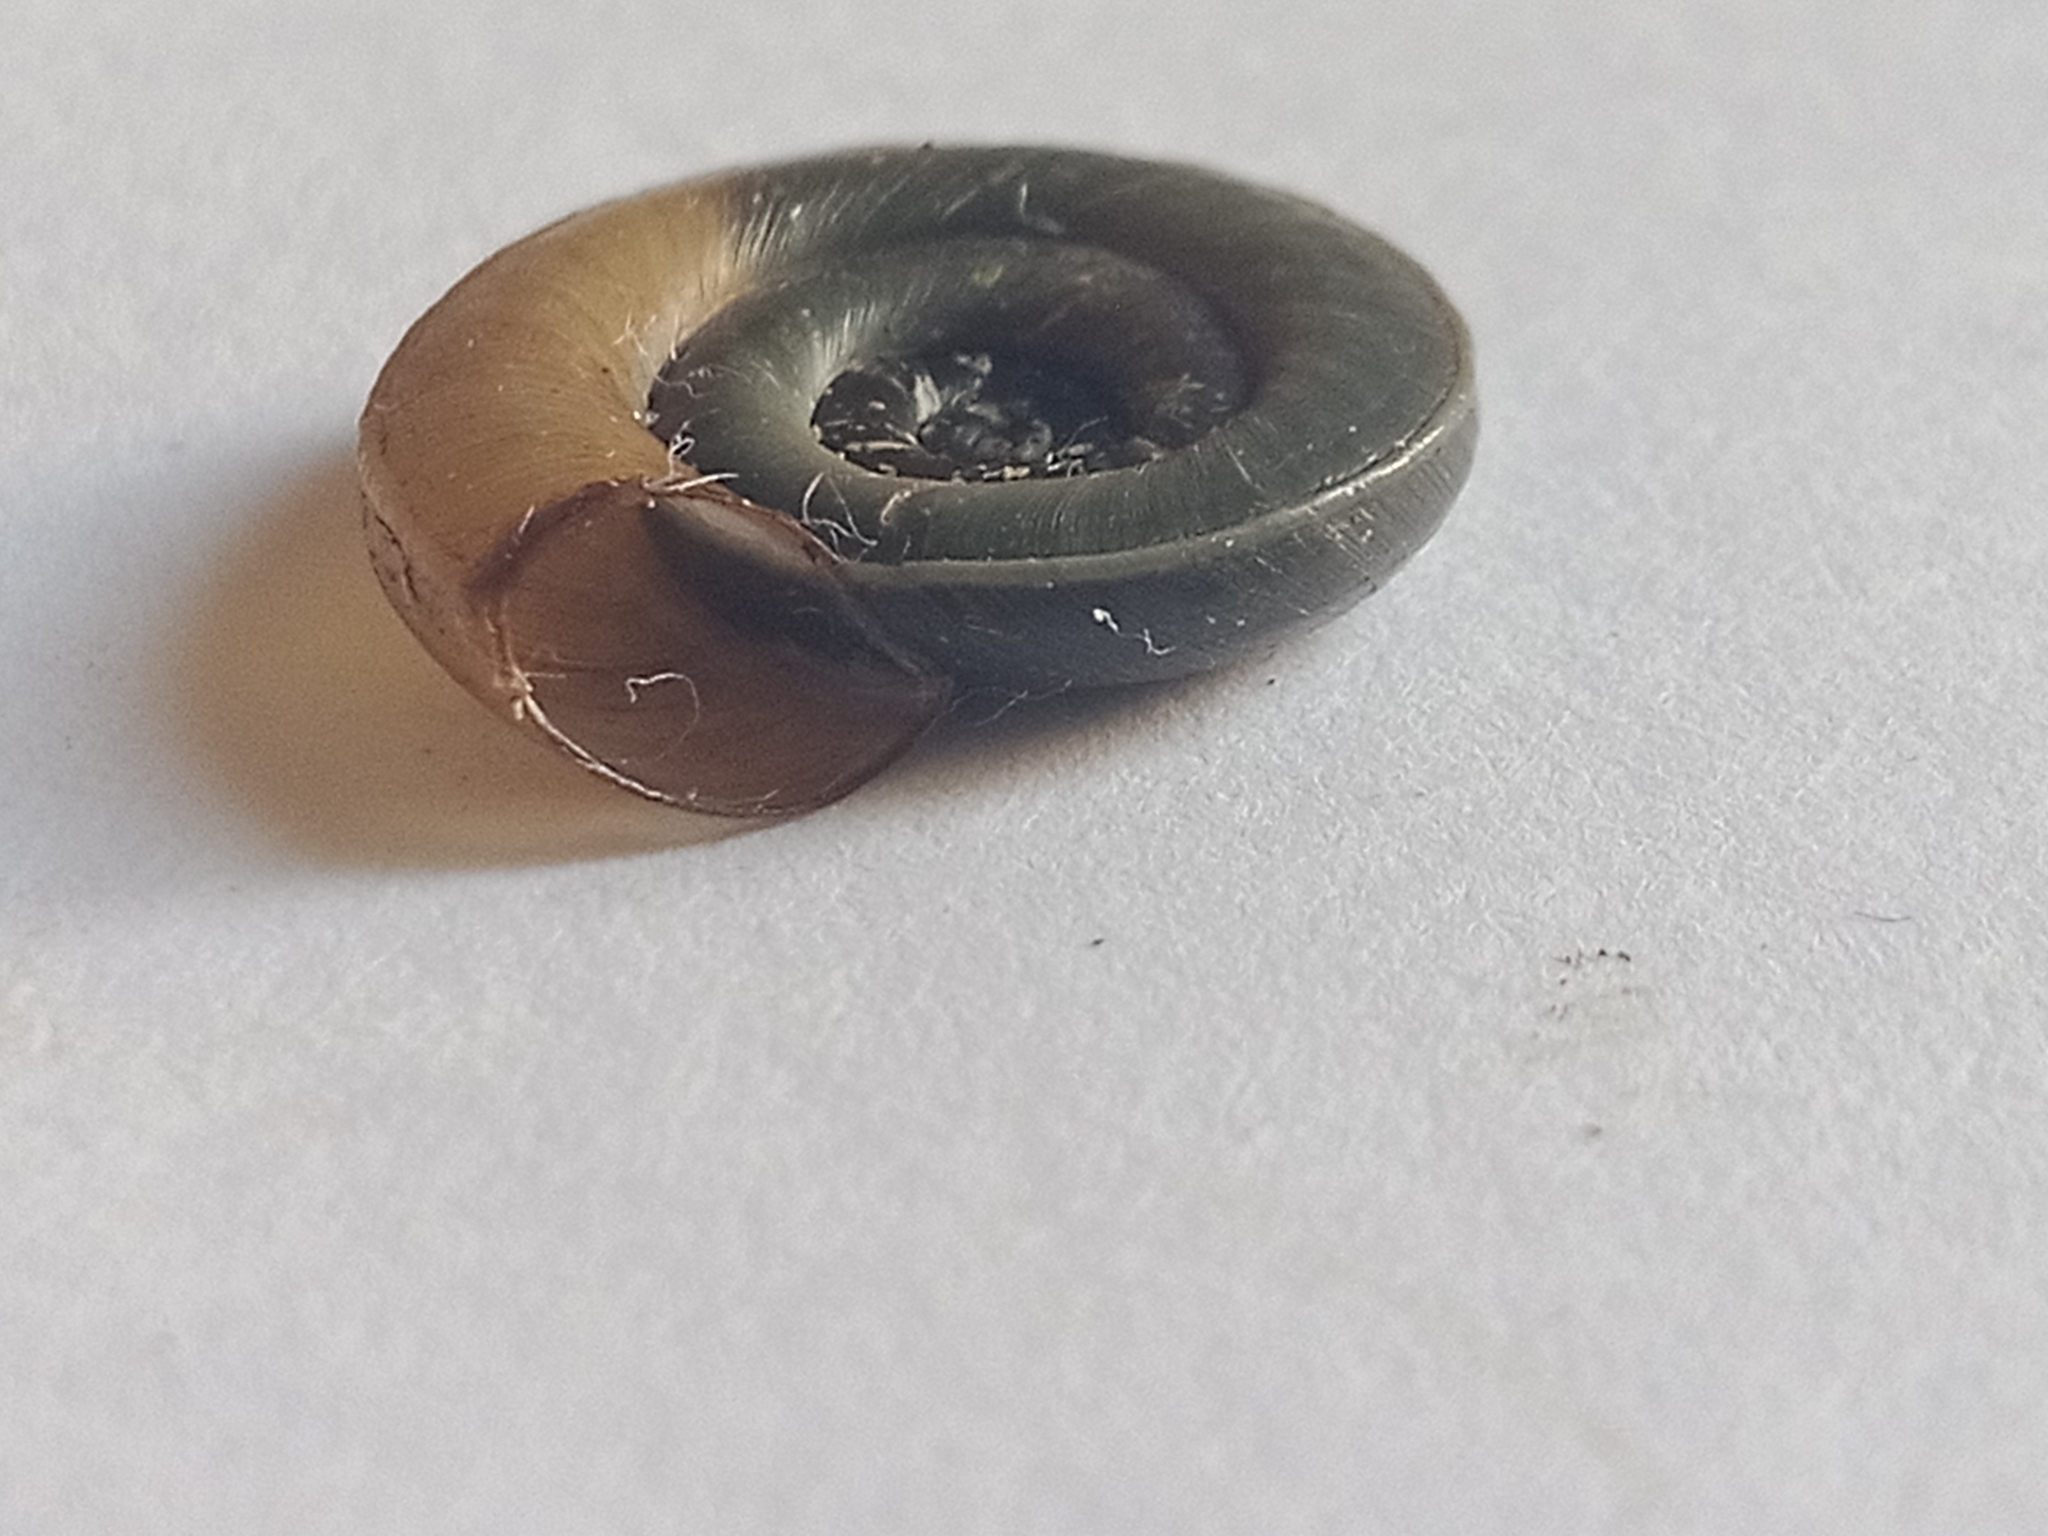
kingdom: Animalia
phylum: Mollusca
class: Gastropoda
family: Planorbidae
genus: Planorbis
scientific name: Planorbis planorbis
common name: Margined ramshorn
